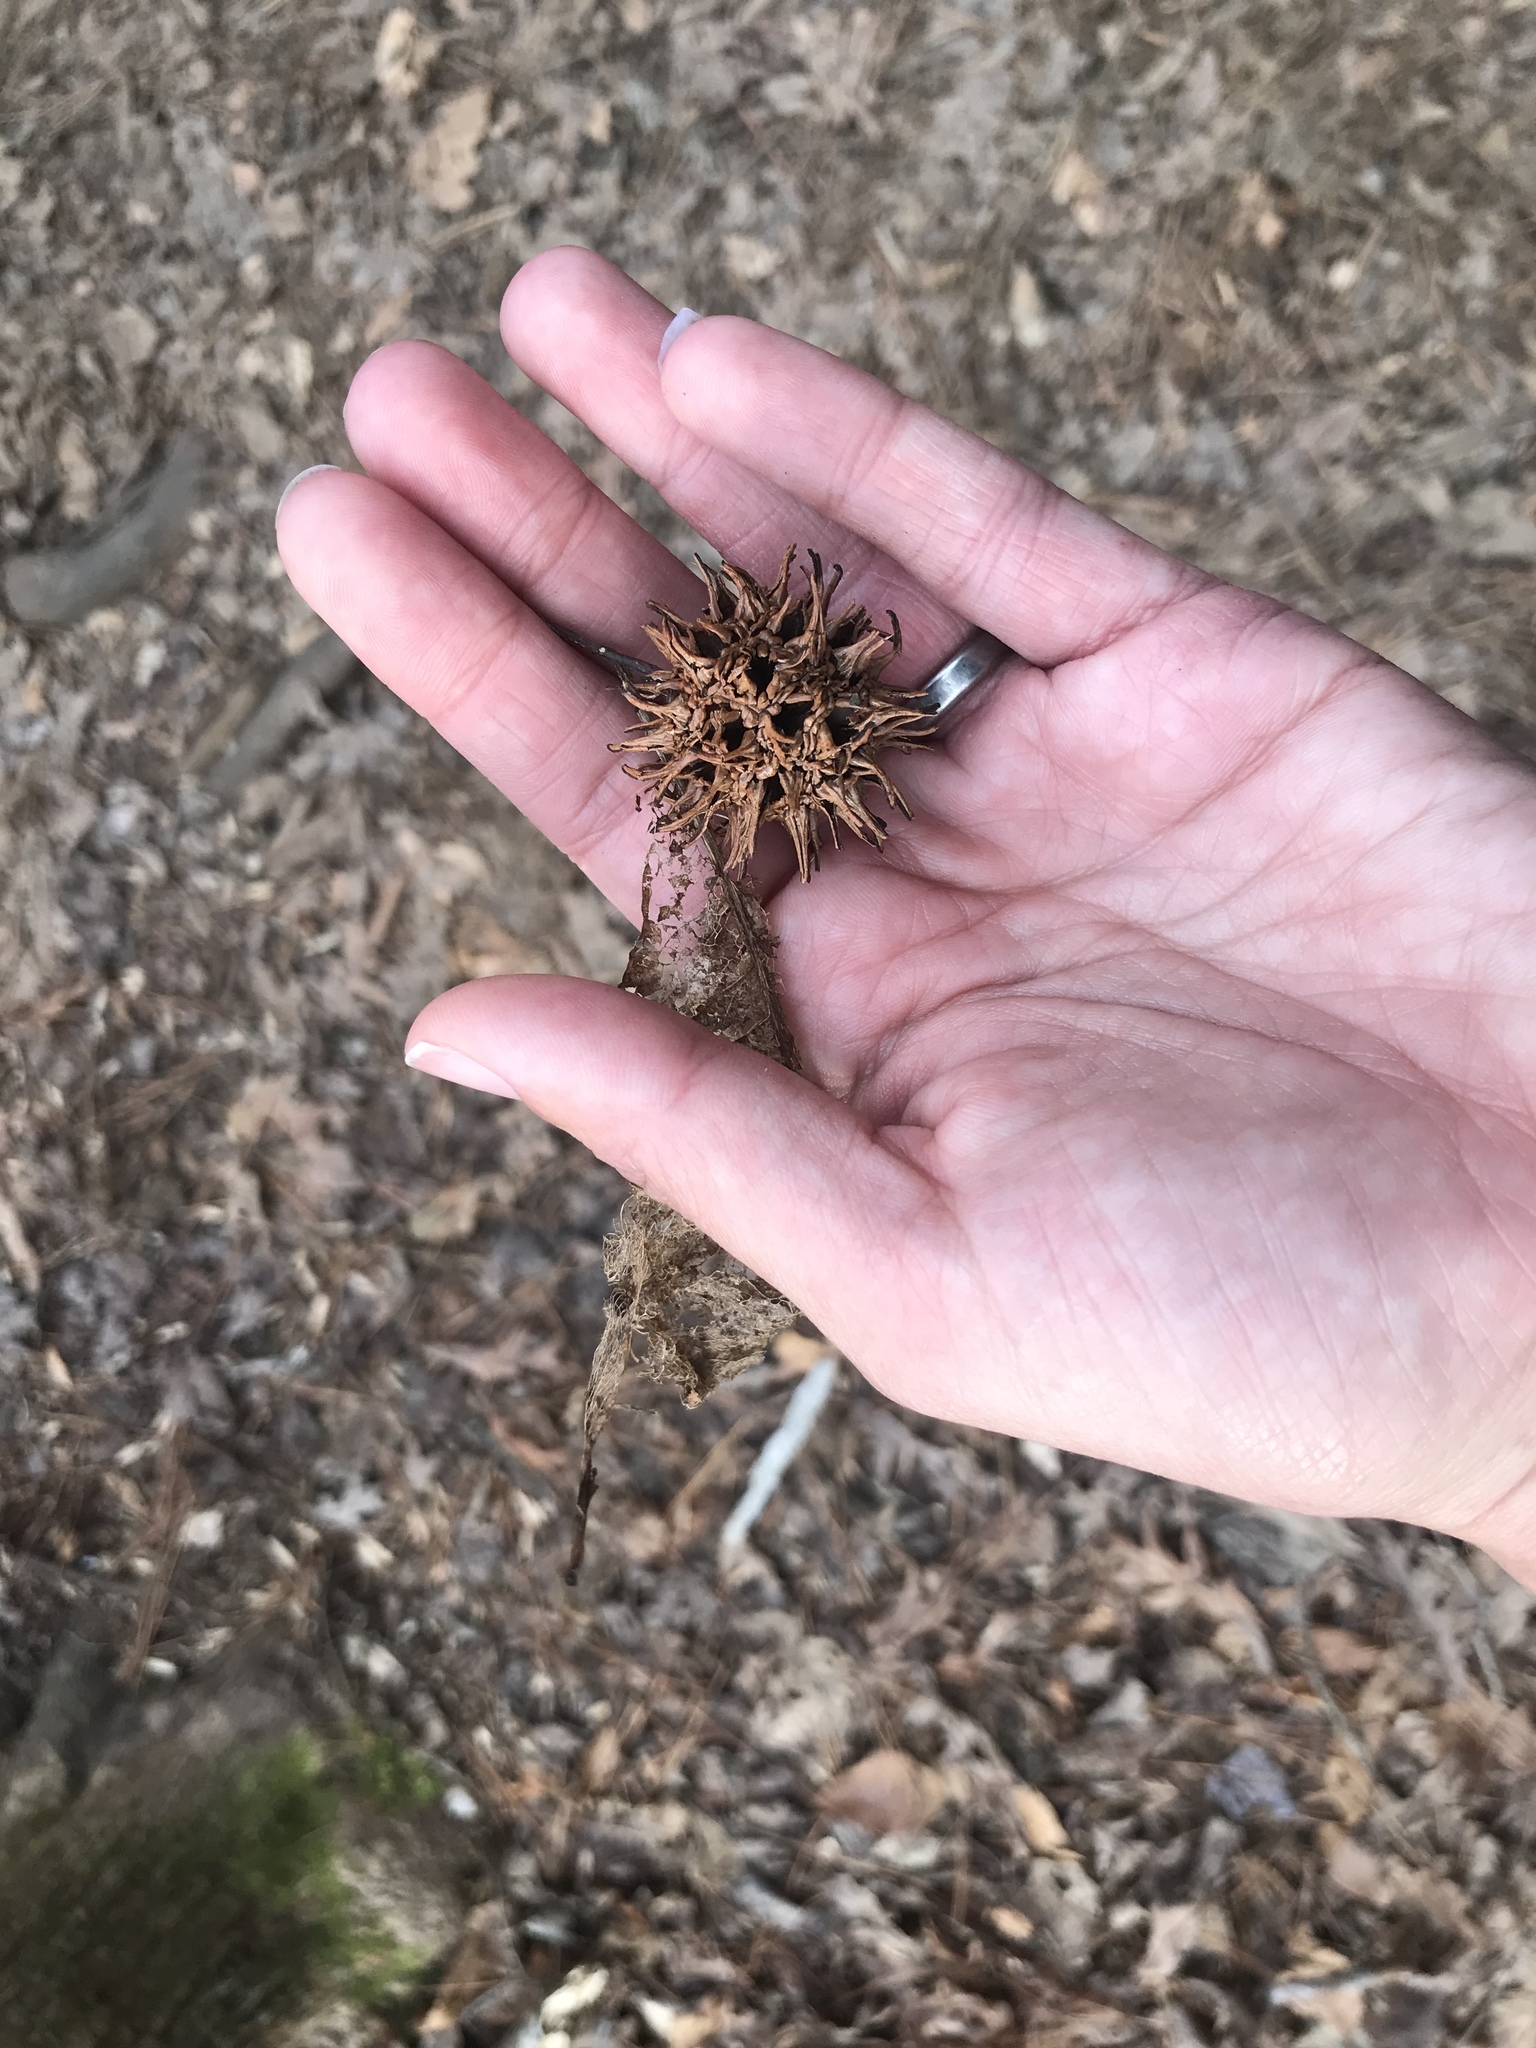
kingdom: Plantae
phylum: Tracheophyta
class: Magnoliopsida
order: Saxifragales
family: Altingiaceae
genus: Liquidambar
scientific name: Liquidambar styraciflua
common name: Sweet gum
